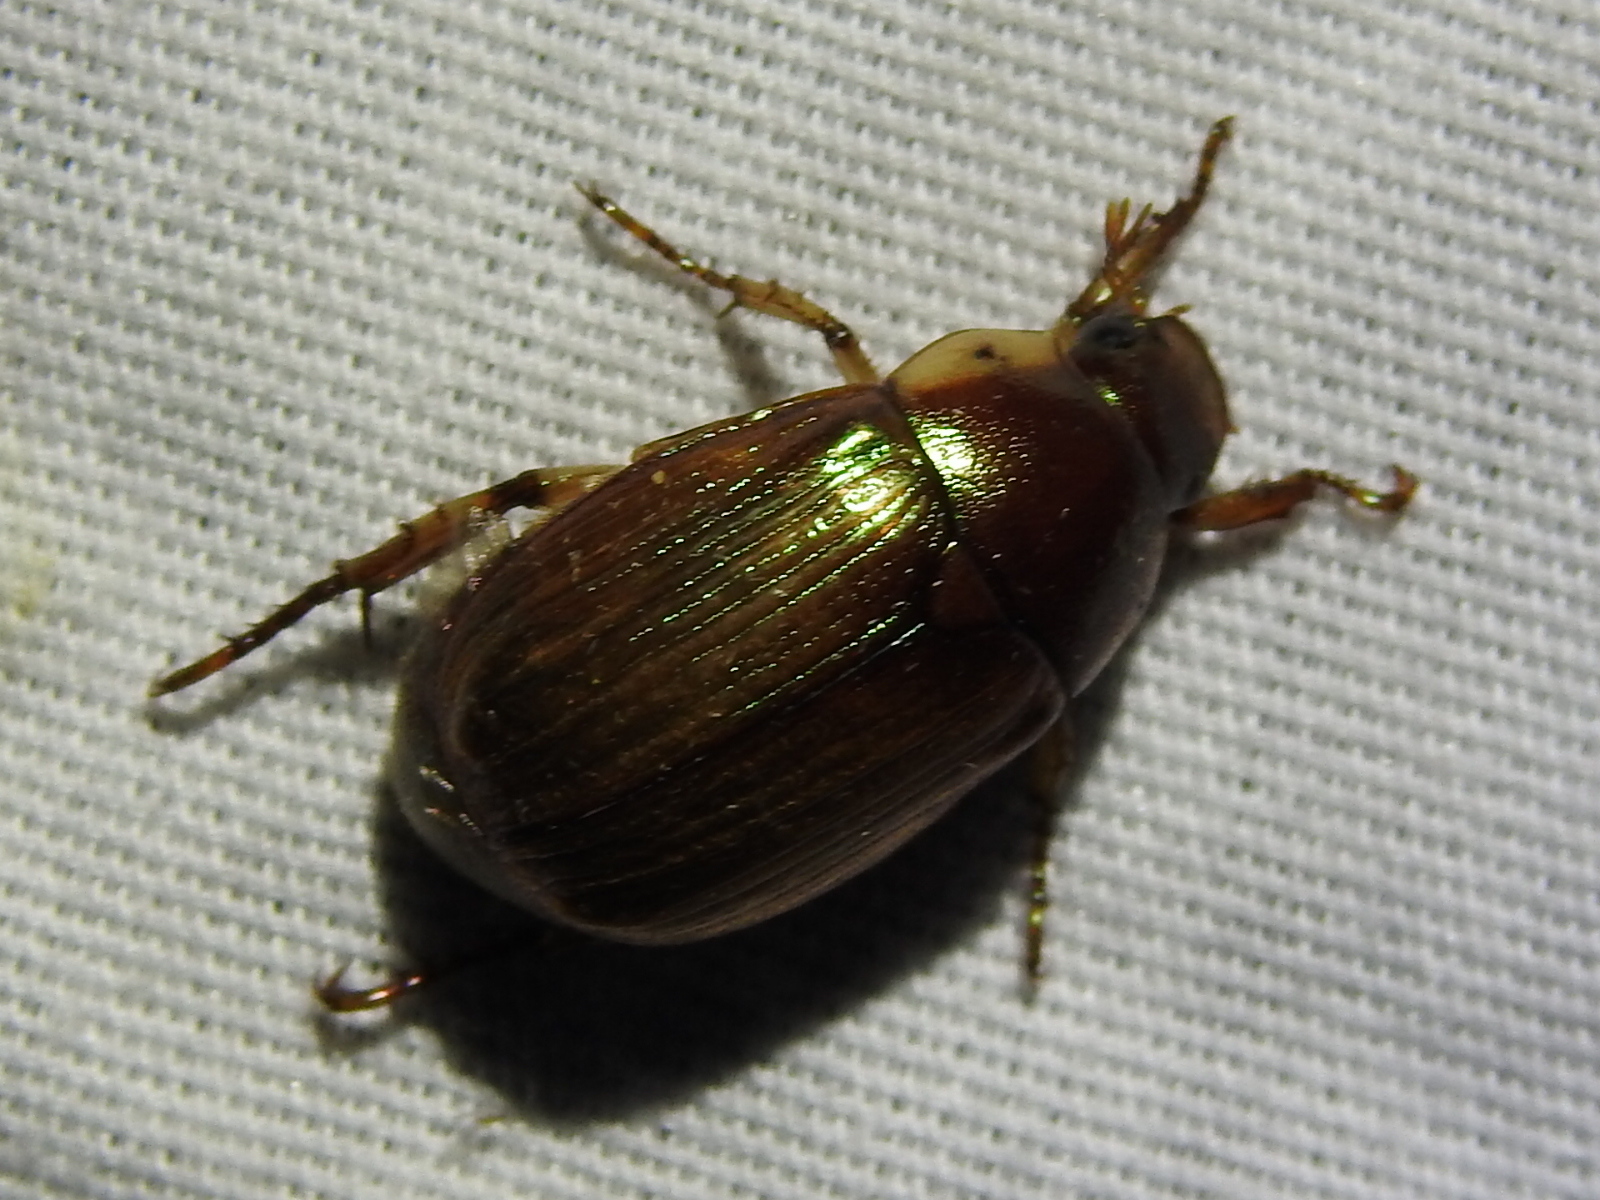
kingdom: Animalia
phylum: Arthropoda
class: Insecta
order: Coleoptera
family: Scarabaeidae
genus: Callistethus
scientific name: Callistethus marginatus
